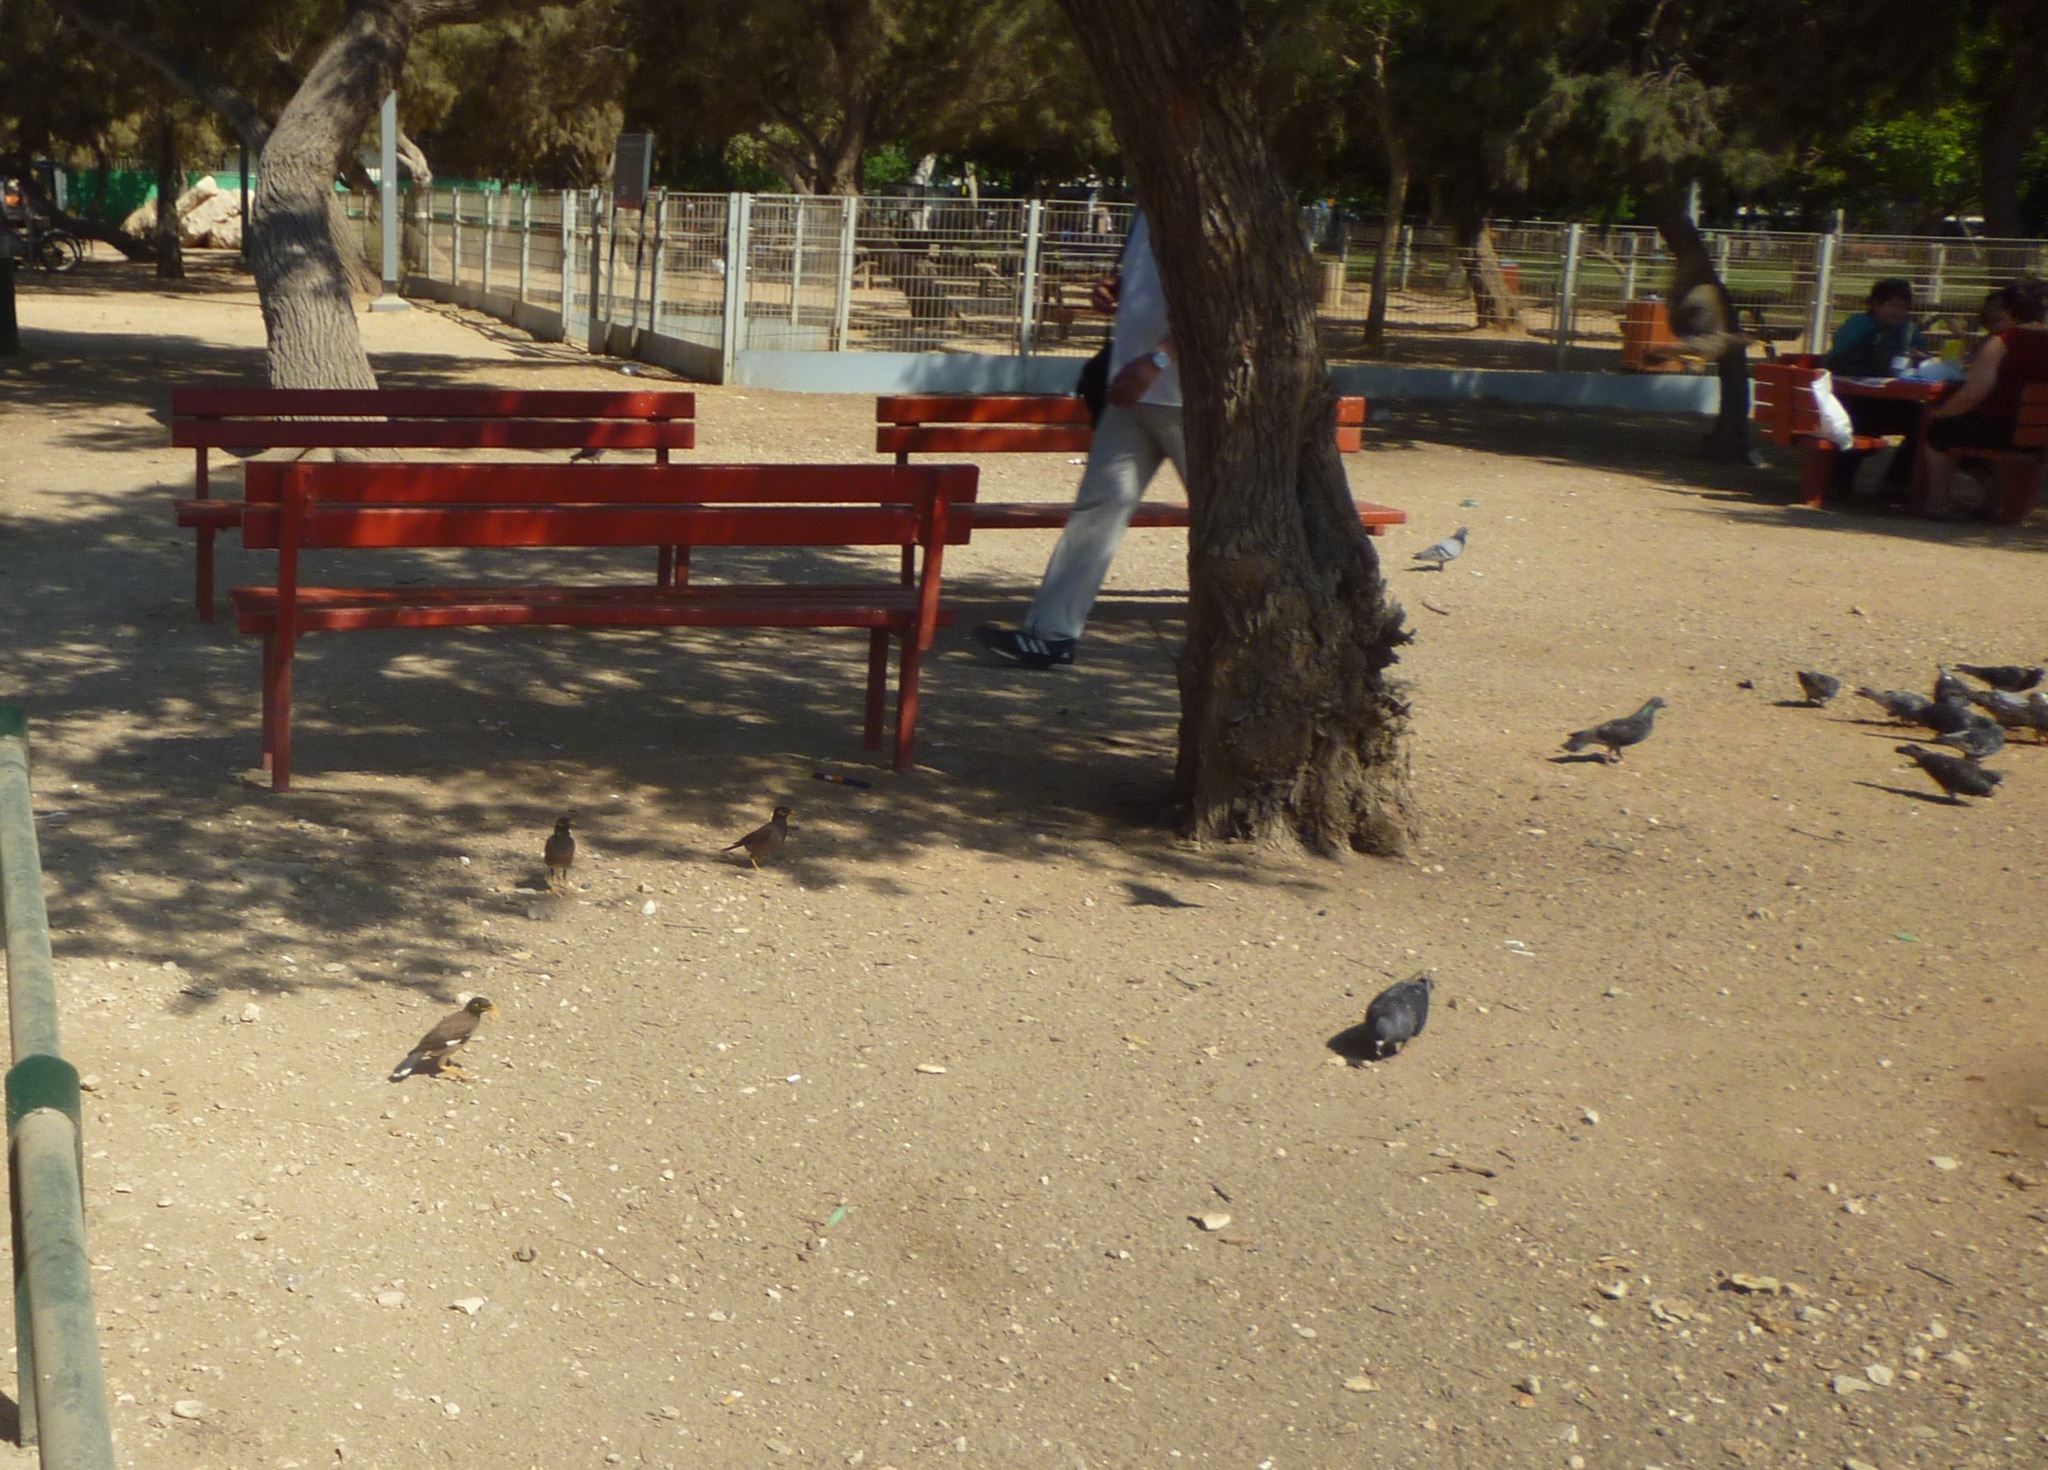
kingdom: Animalia
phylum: Chordata
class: Aves
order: Passeriformes
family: Sturnidae
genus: Acridotheres
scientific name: Acridotheres tristis
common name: Common myna
